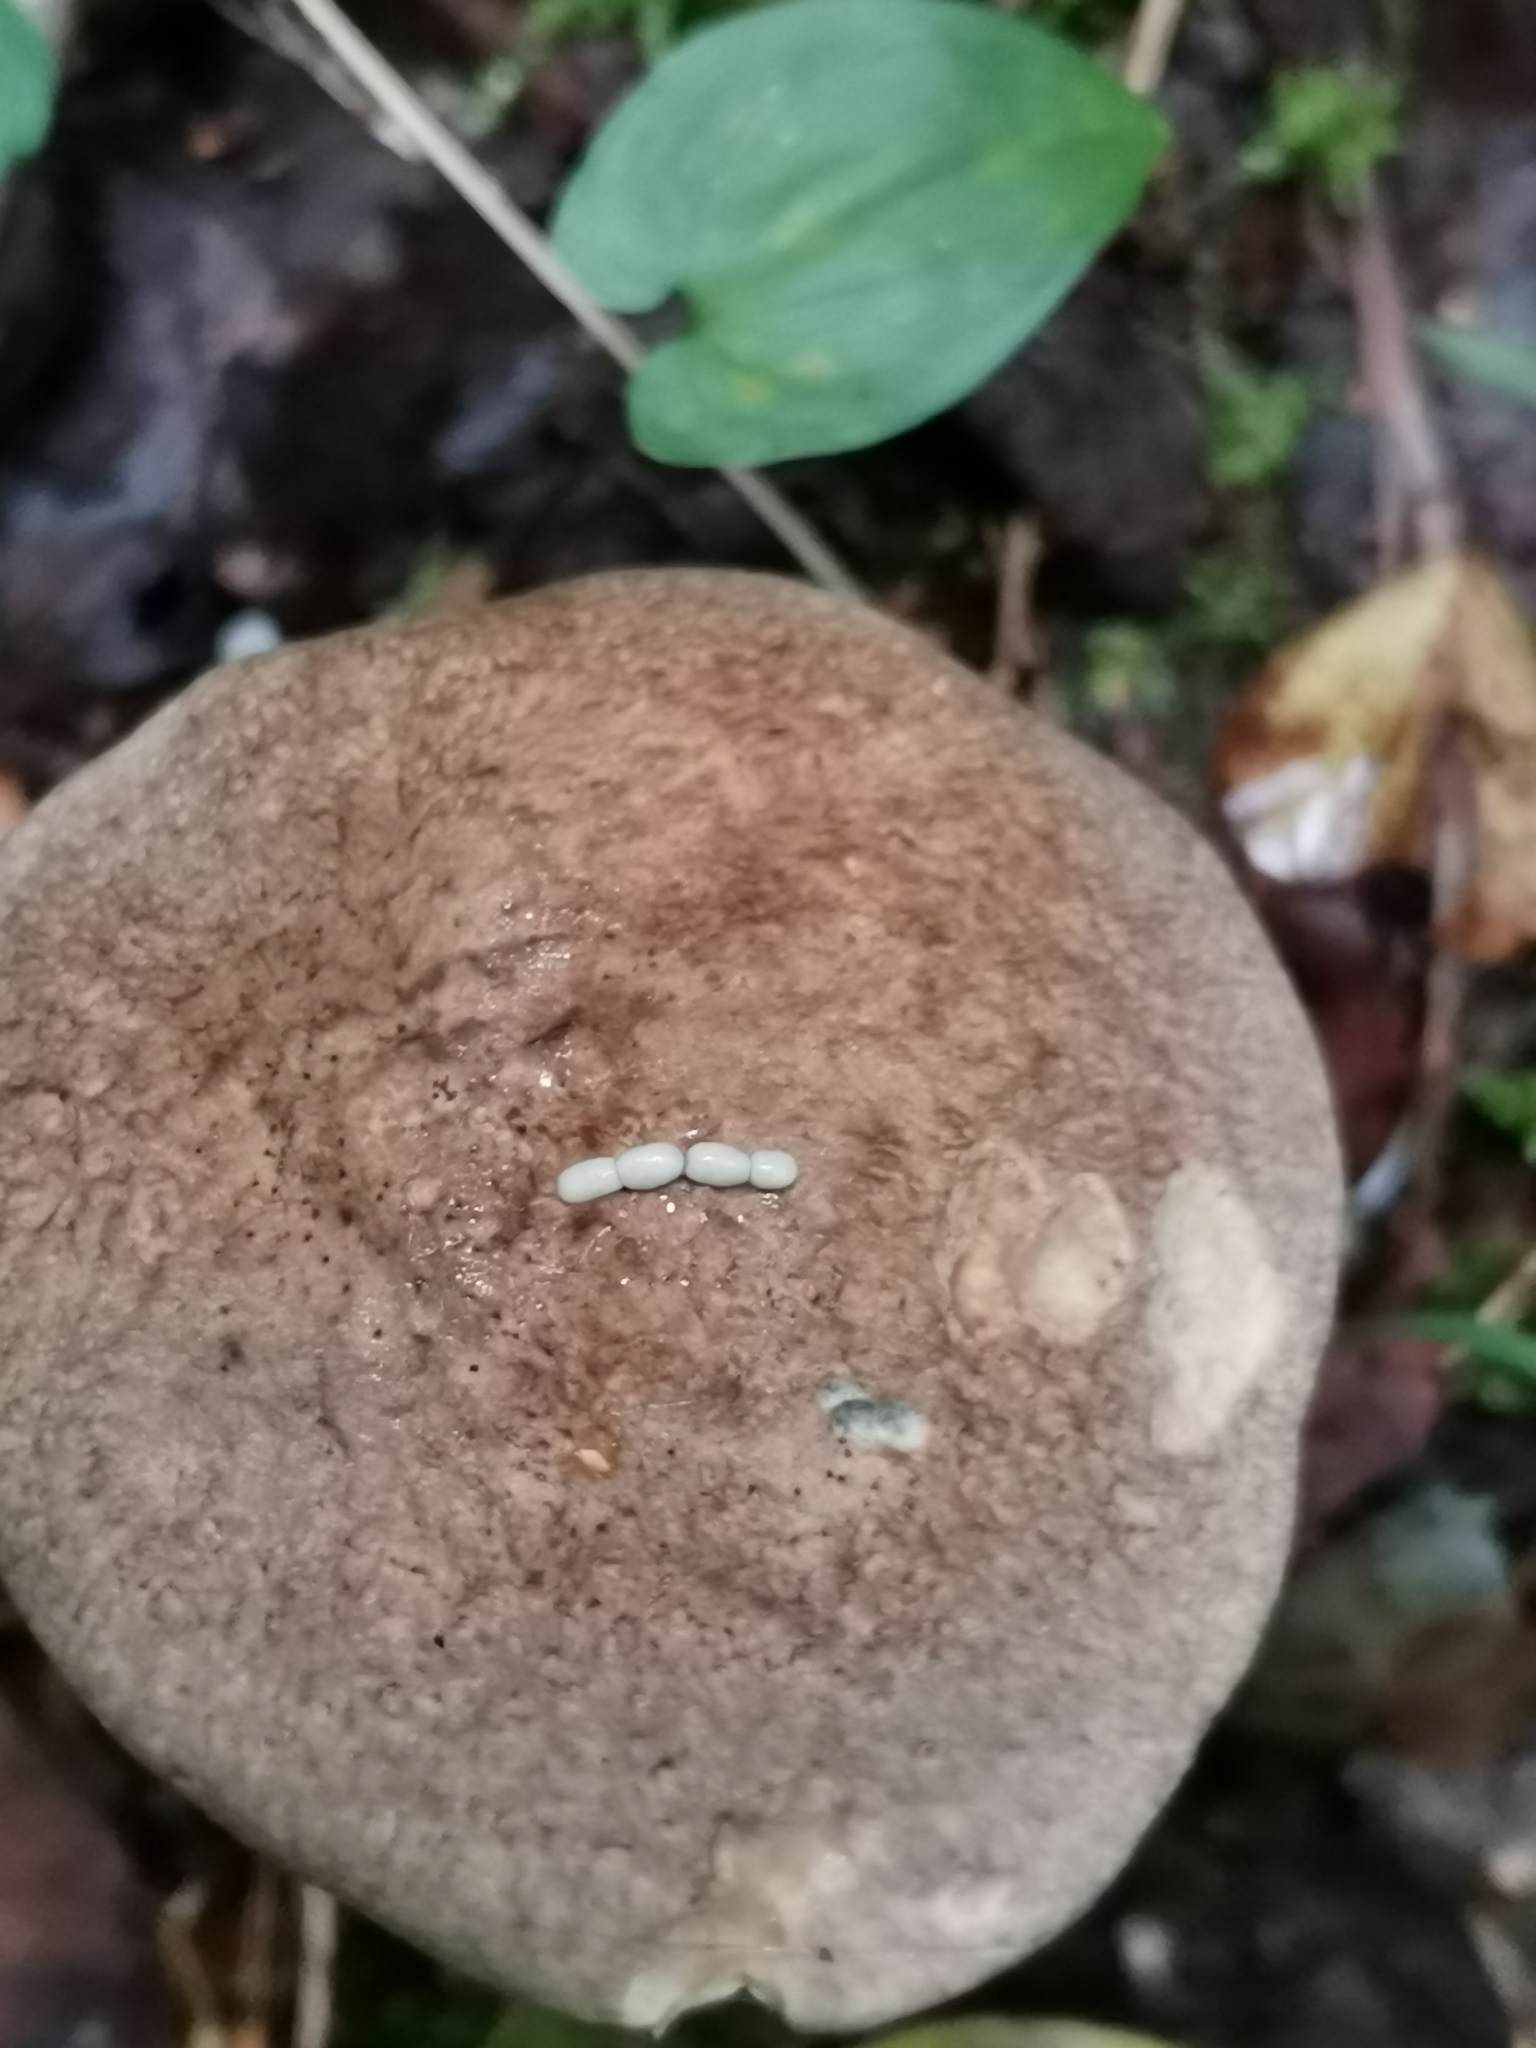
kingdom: Fungi
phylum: Basidiomycota
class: Agaricomycetes
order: Boletales
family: Boletaceae
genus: Leccinum
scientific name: Leccinum variicolor
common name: Mottled bolete
